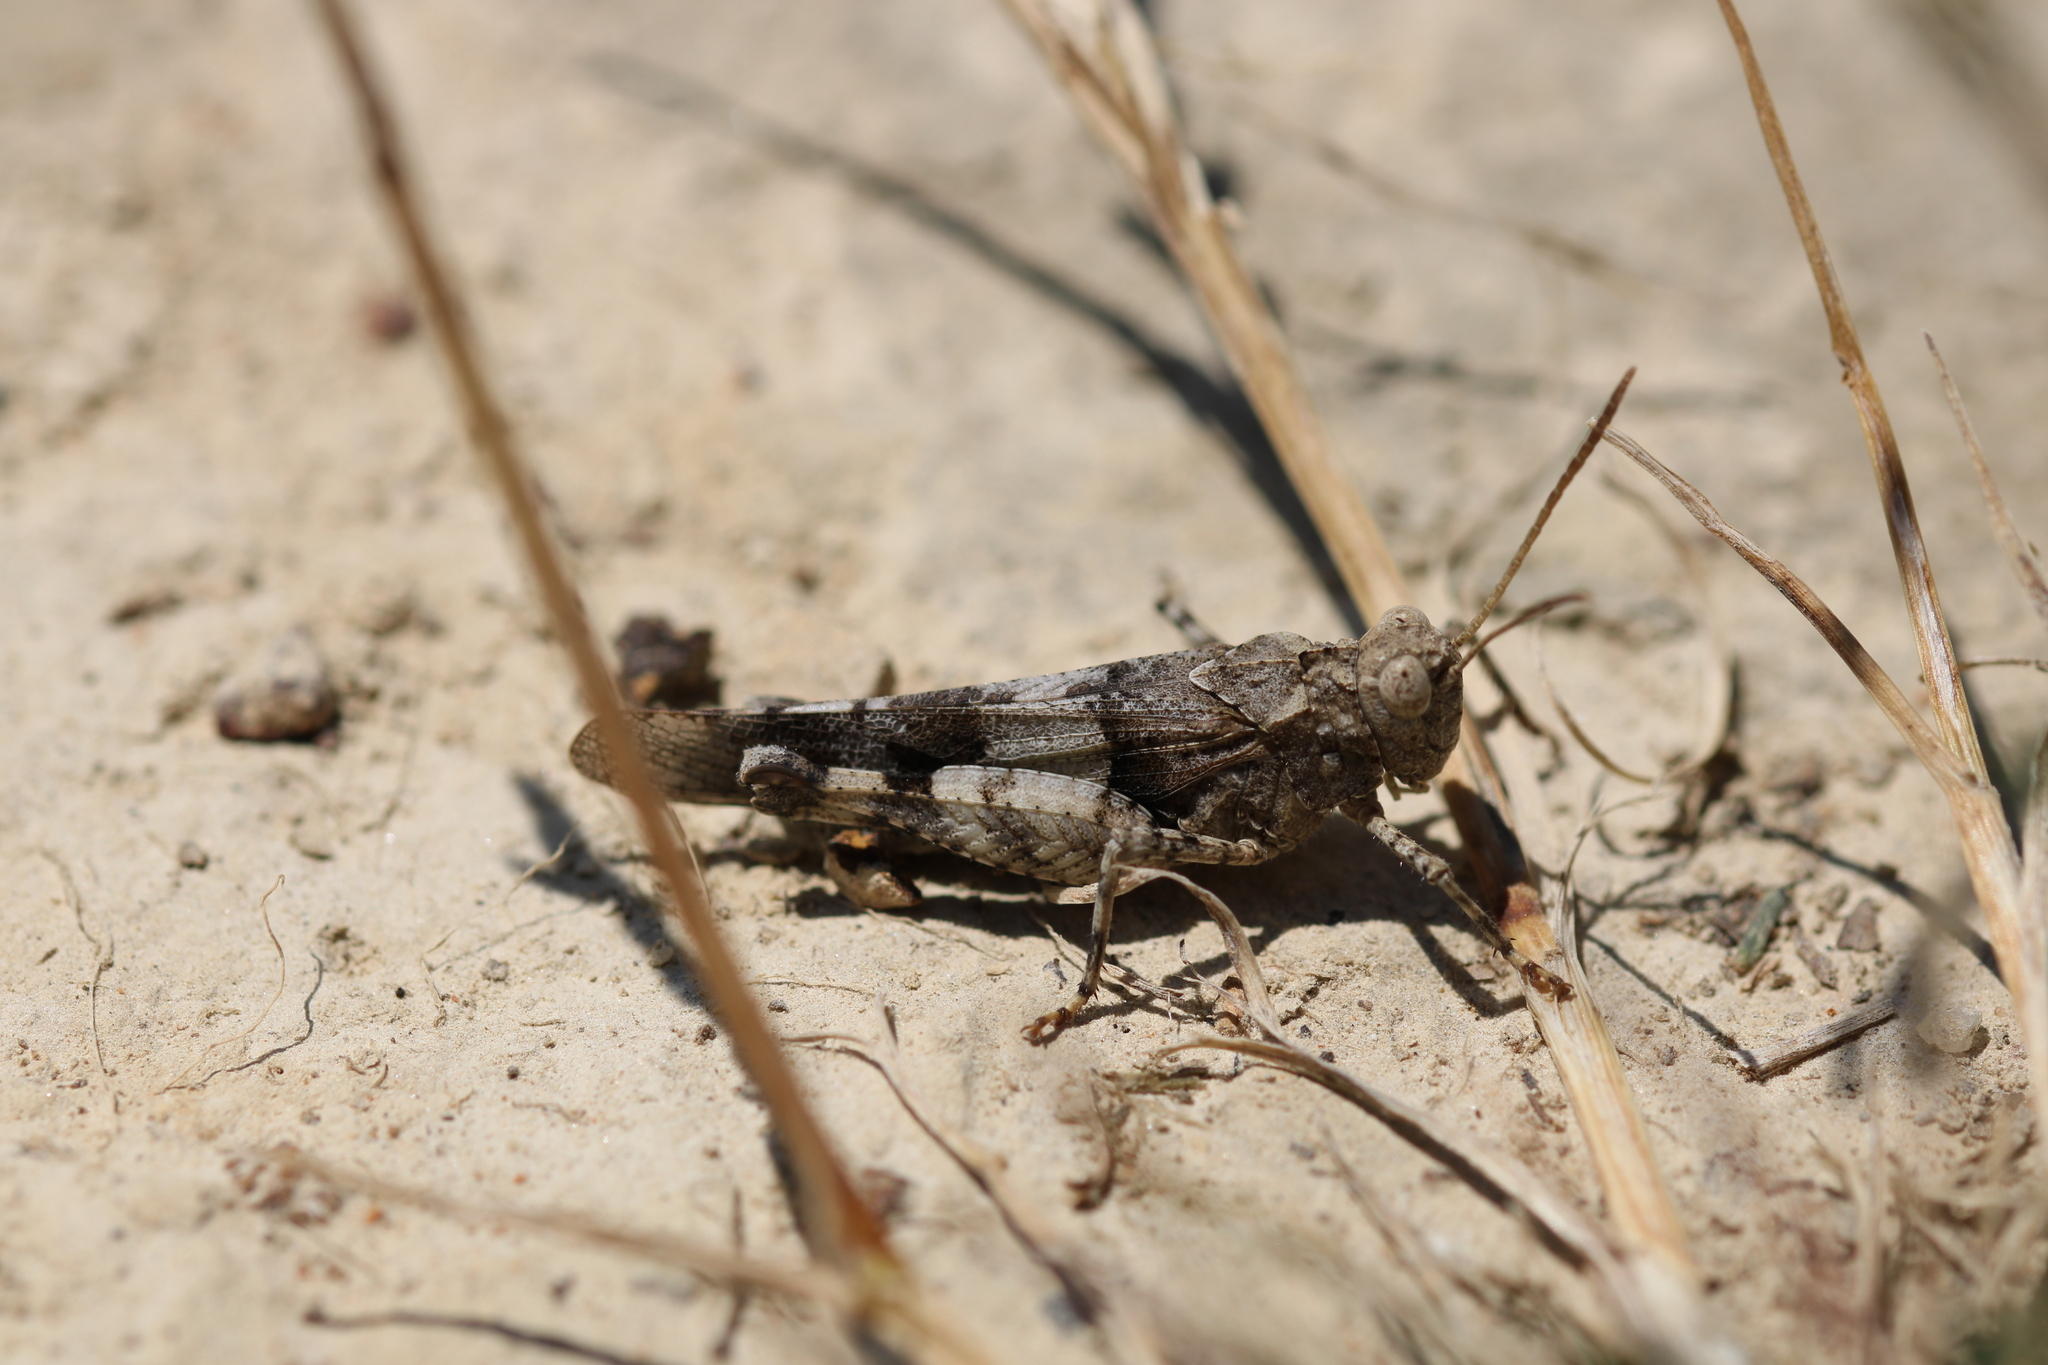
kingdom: Animalia
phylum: Arthropoda
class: Insecta
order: Orthoptera
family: Acrididae
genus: Oedipoda
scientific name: Oedipoda caerulescens
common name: Blue-winged grasshopper
